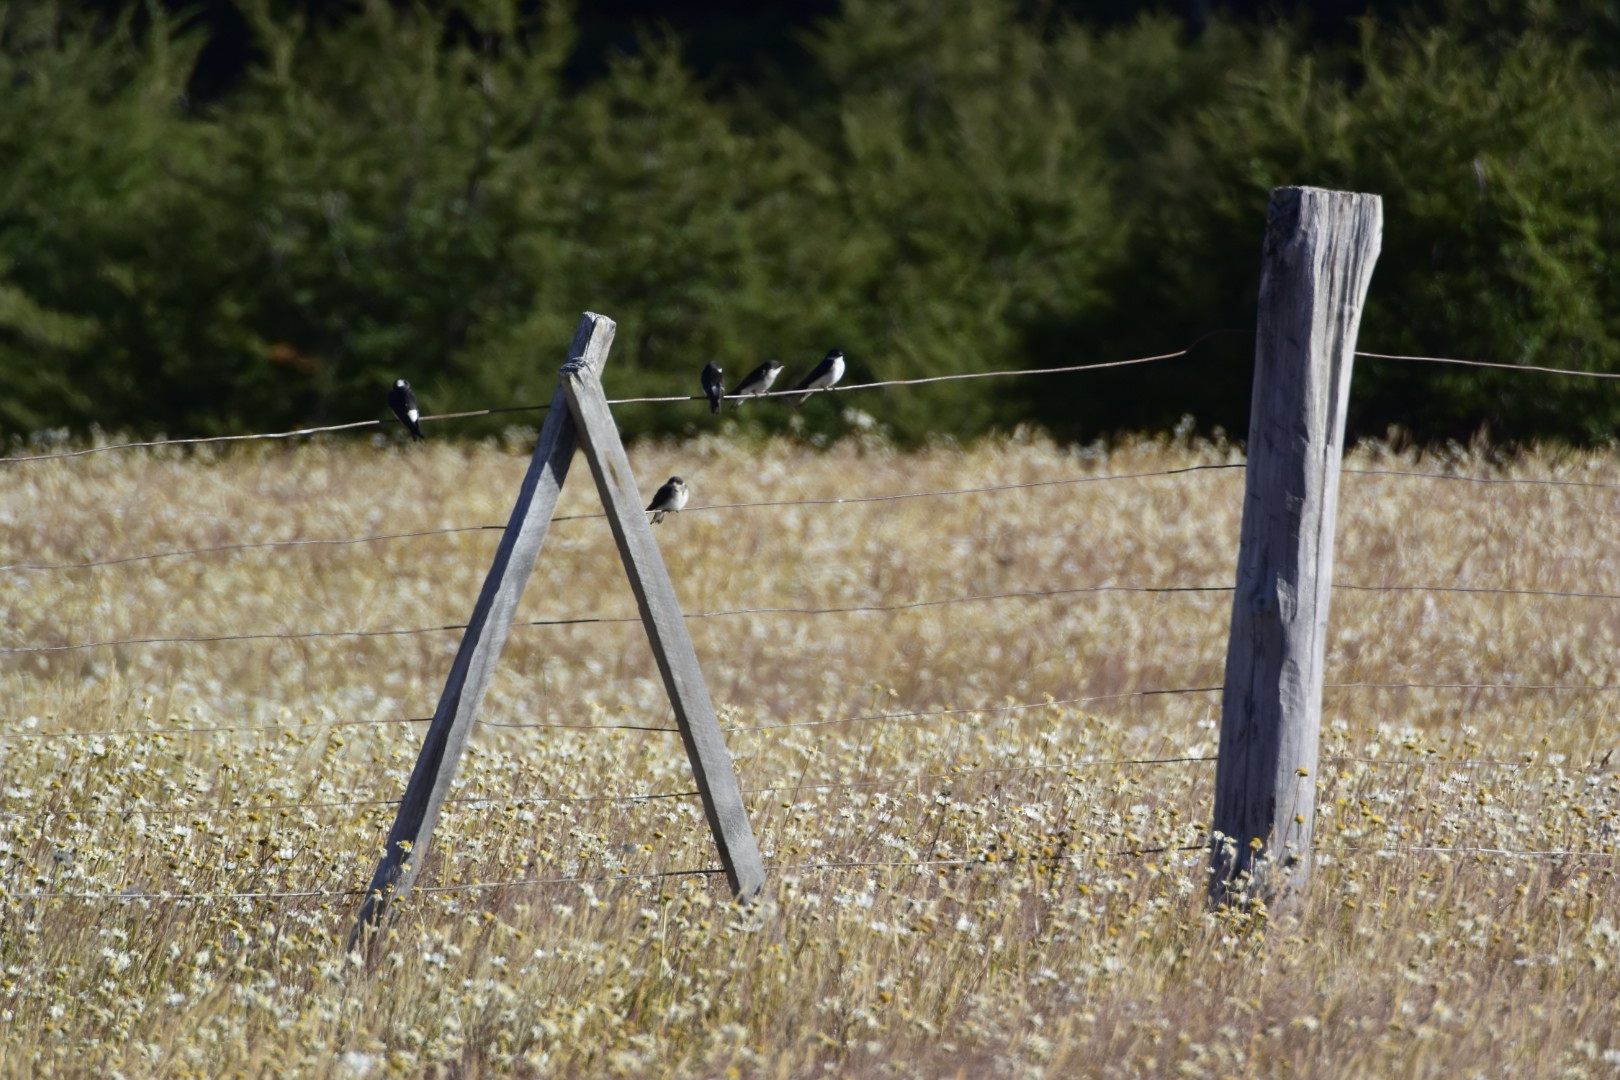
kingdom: Animalia
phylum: Chordata
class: Aves
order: Passeriformes
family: Hirundinidae
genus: Tachycineta
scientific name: Tachycineta leucopyga
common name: Chilean swallow
